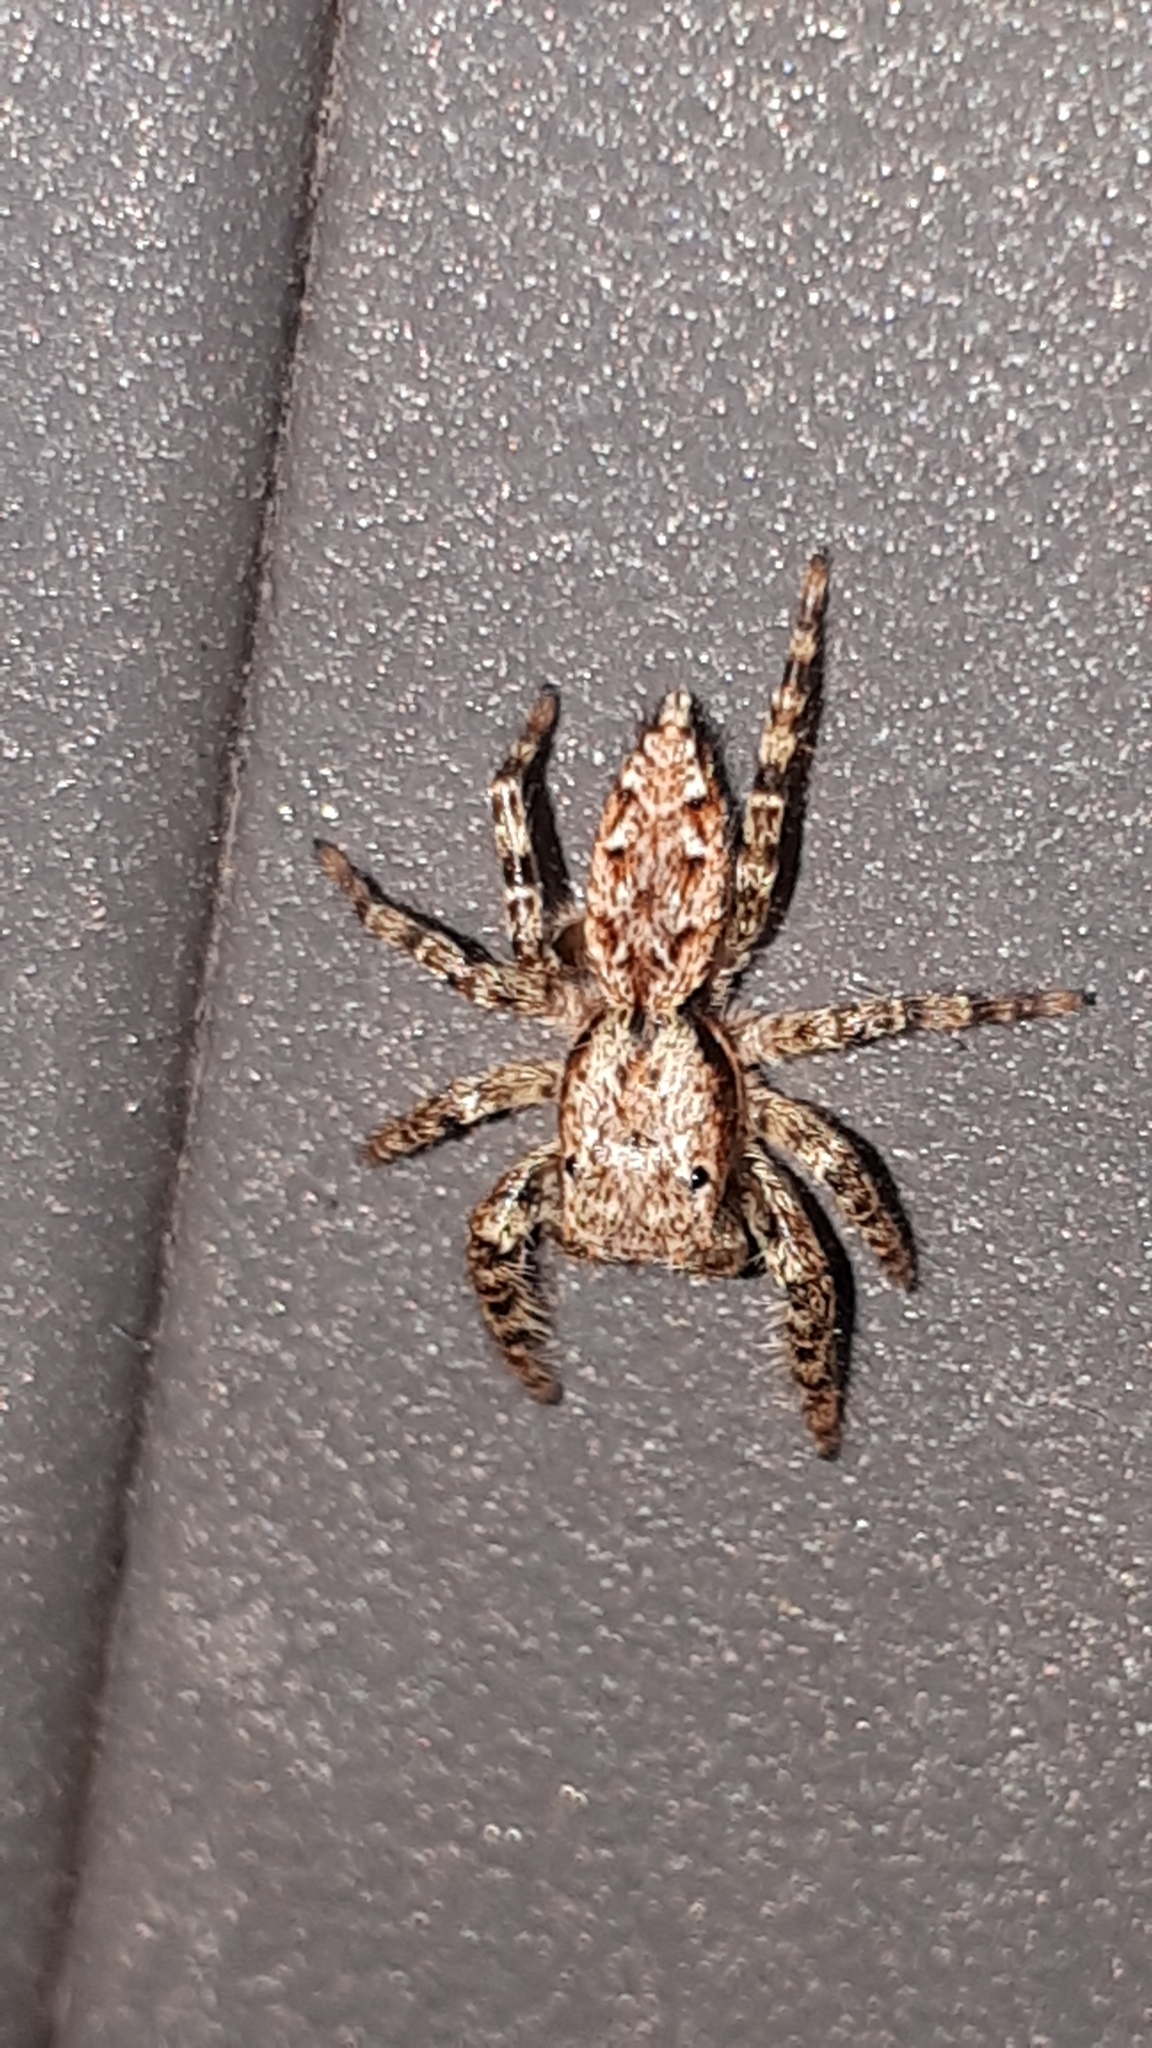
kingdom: Animalia
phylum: Arthropoda
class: Arachnida
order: Araneae
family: Salticidae
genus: Marpissa
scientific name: Marpissa muscosa
